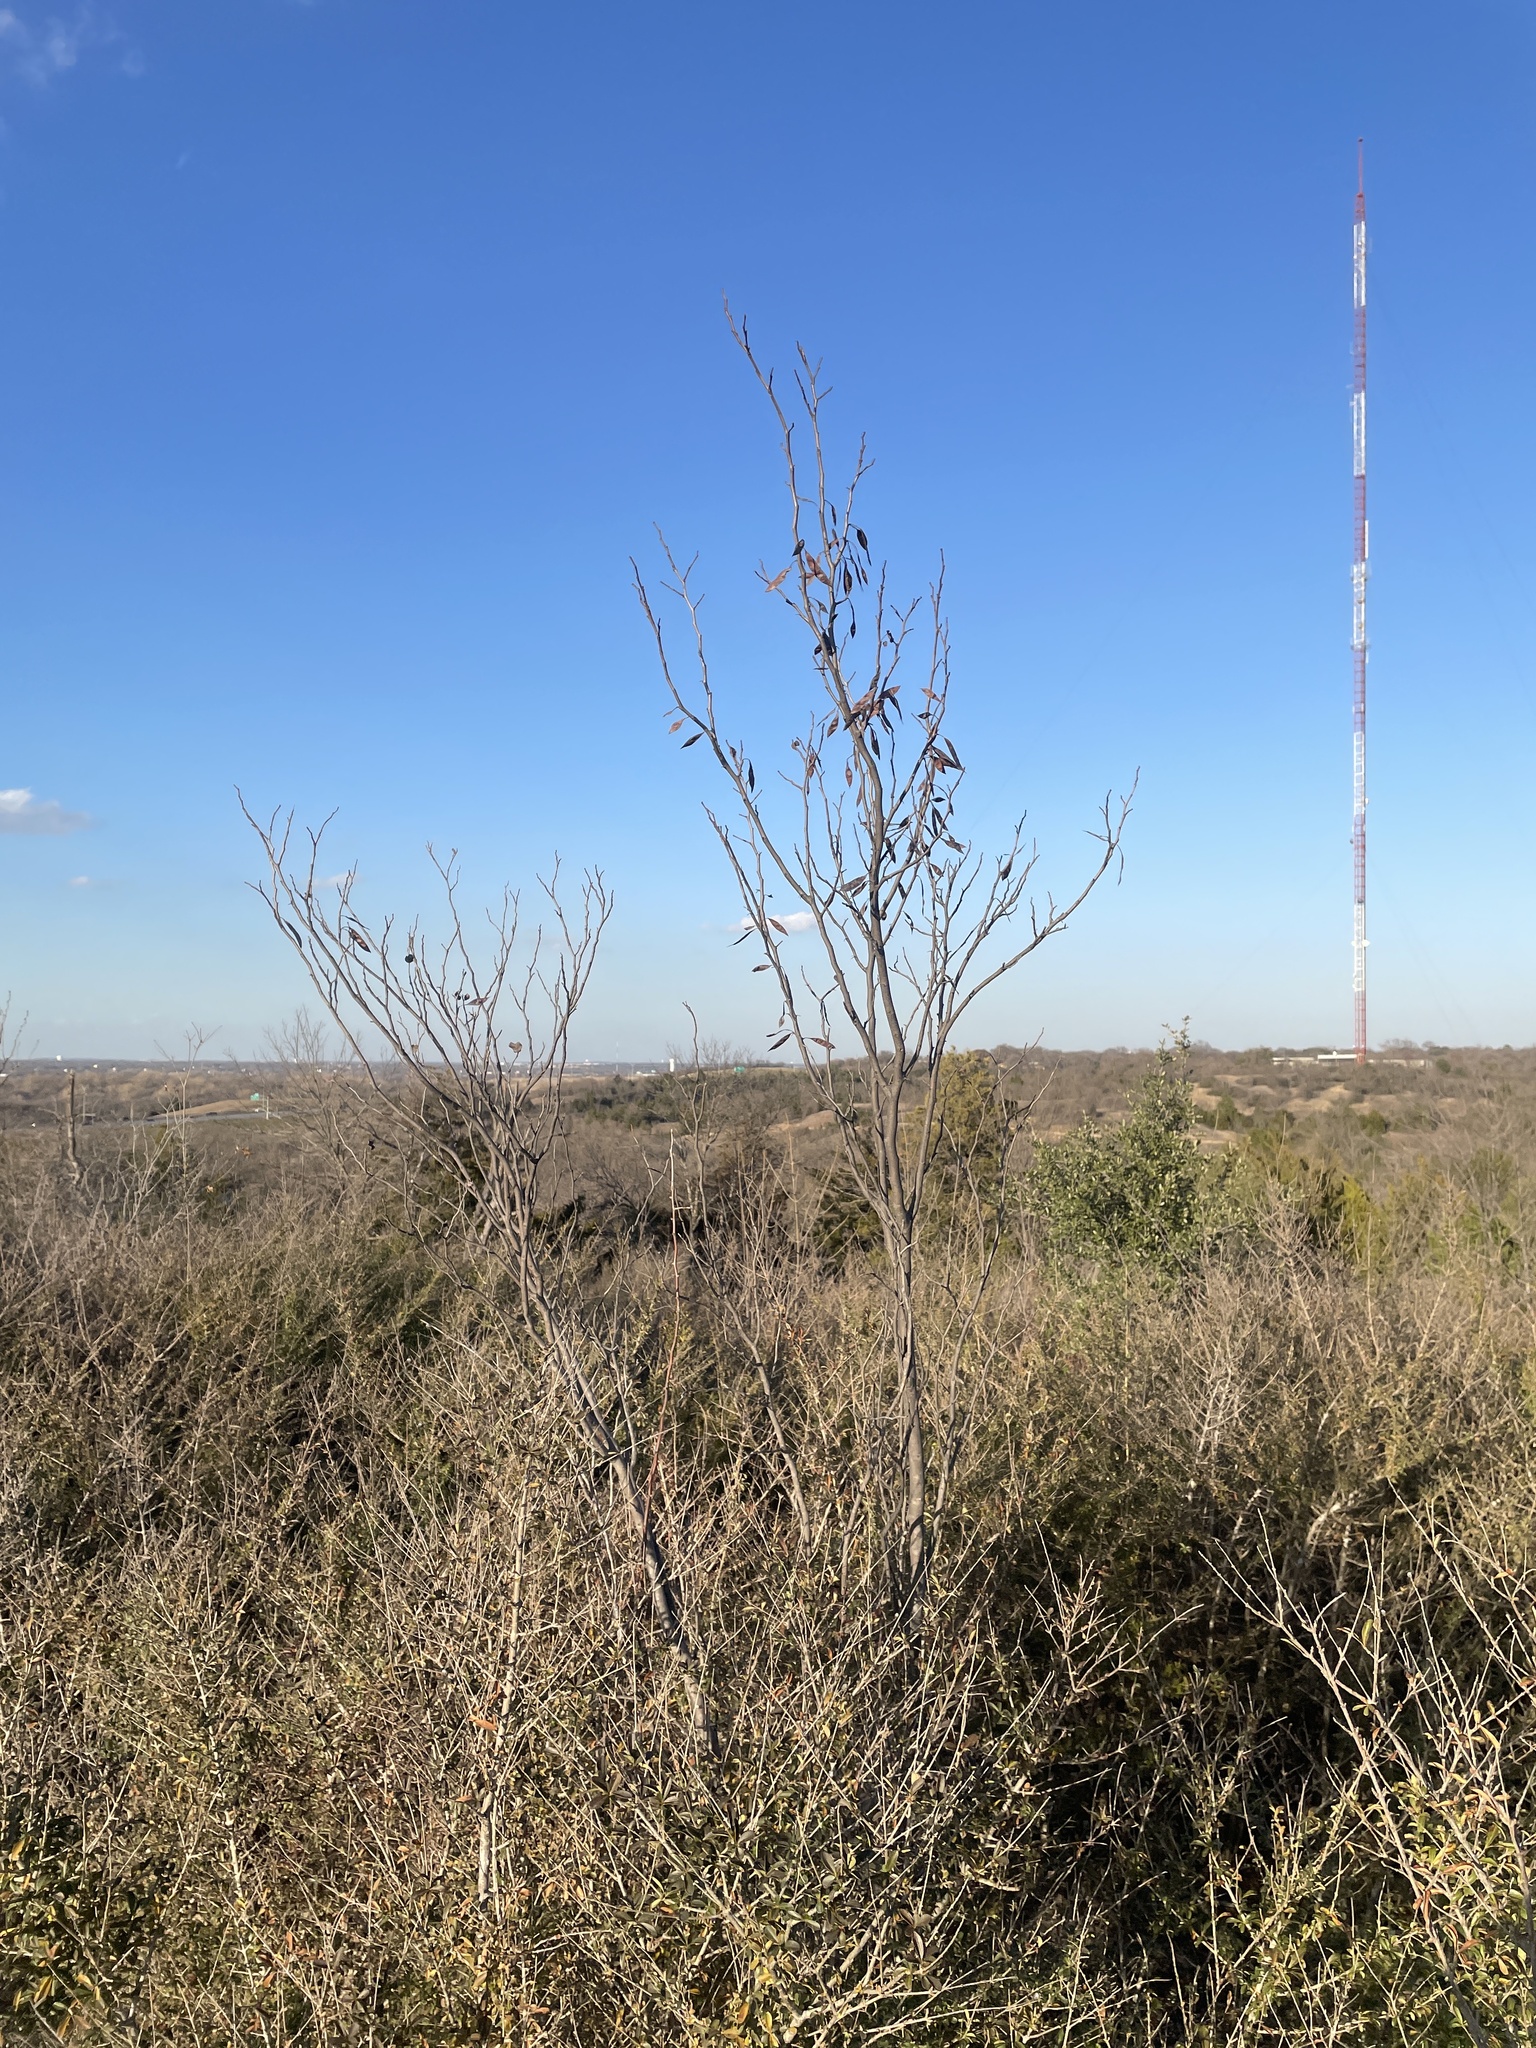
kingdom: Plantae
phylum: Tracheophyta
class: Magnoliopsida
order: Fabales
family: Fabaceae
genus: Cercis
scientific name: Cercis canadensis
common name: Eastern redbud
